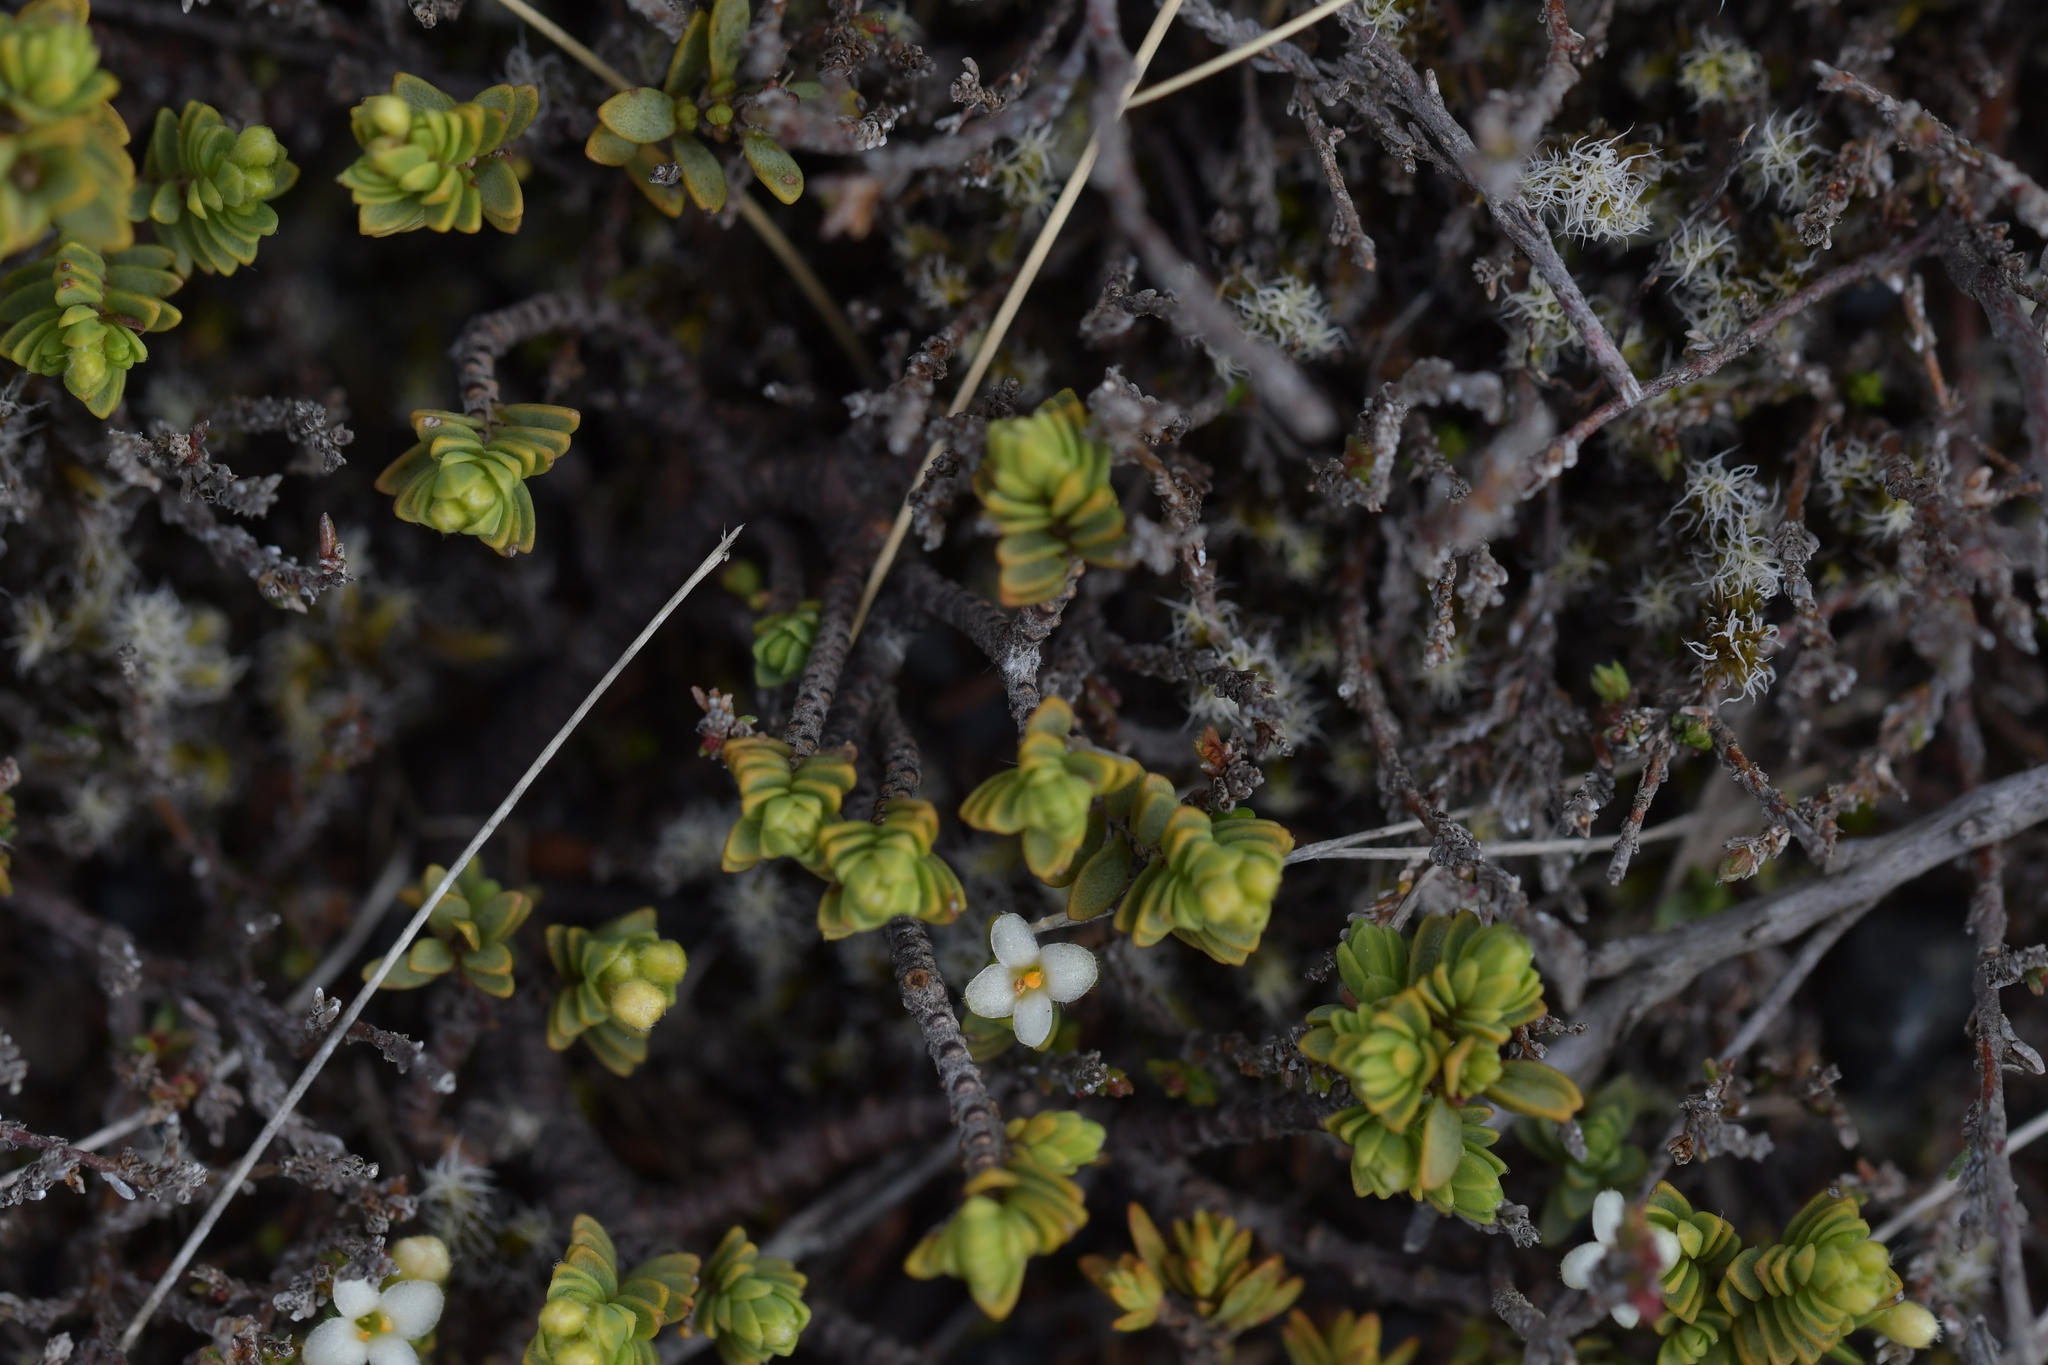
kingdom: Plantae
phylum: Tracheophyta
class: Magnoliopsida
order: Malvales
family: Thymelaeaceae
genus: Pimelea
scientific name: Pimelea microphylla
